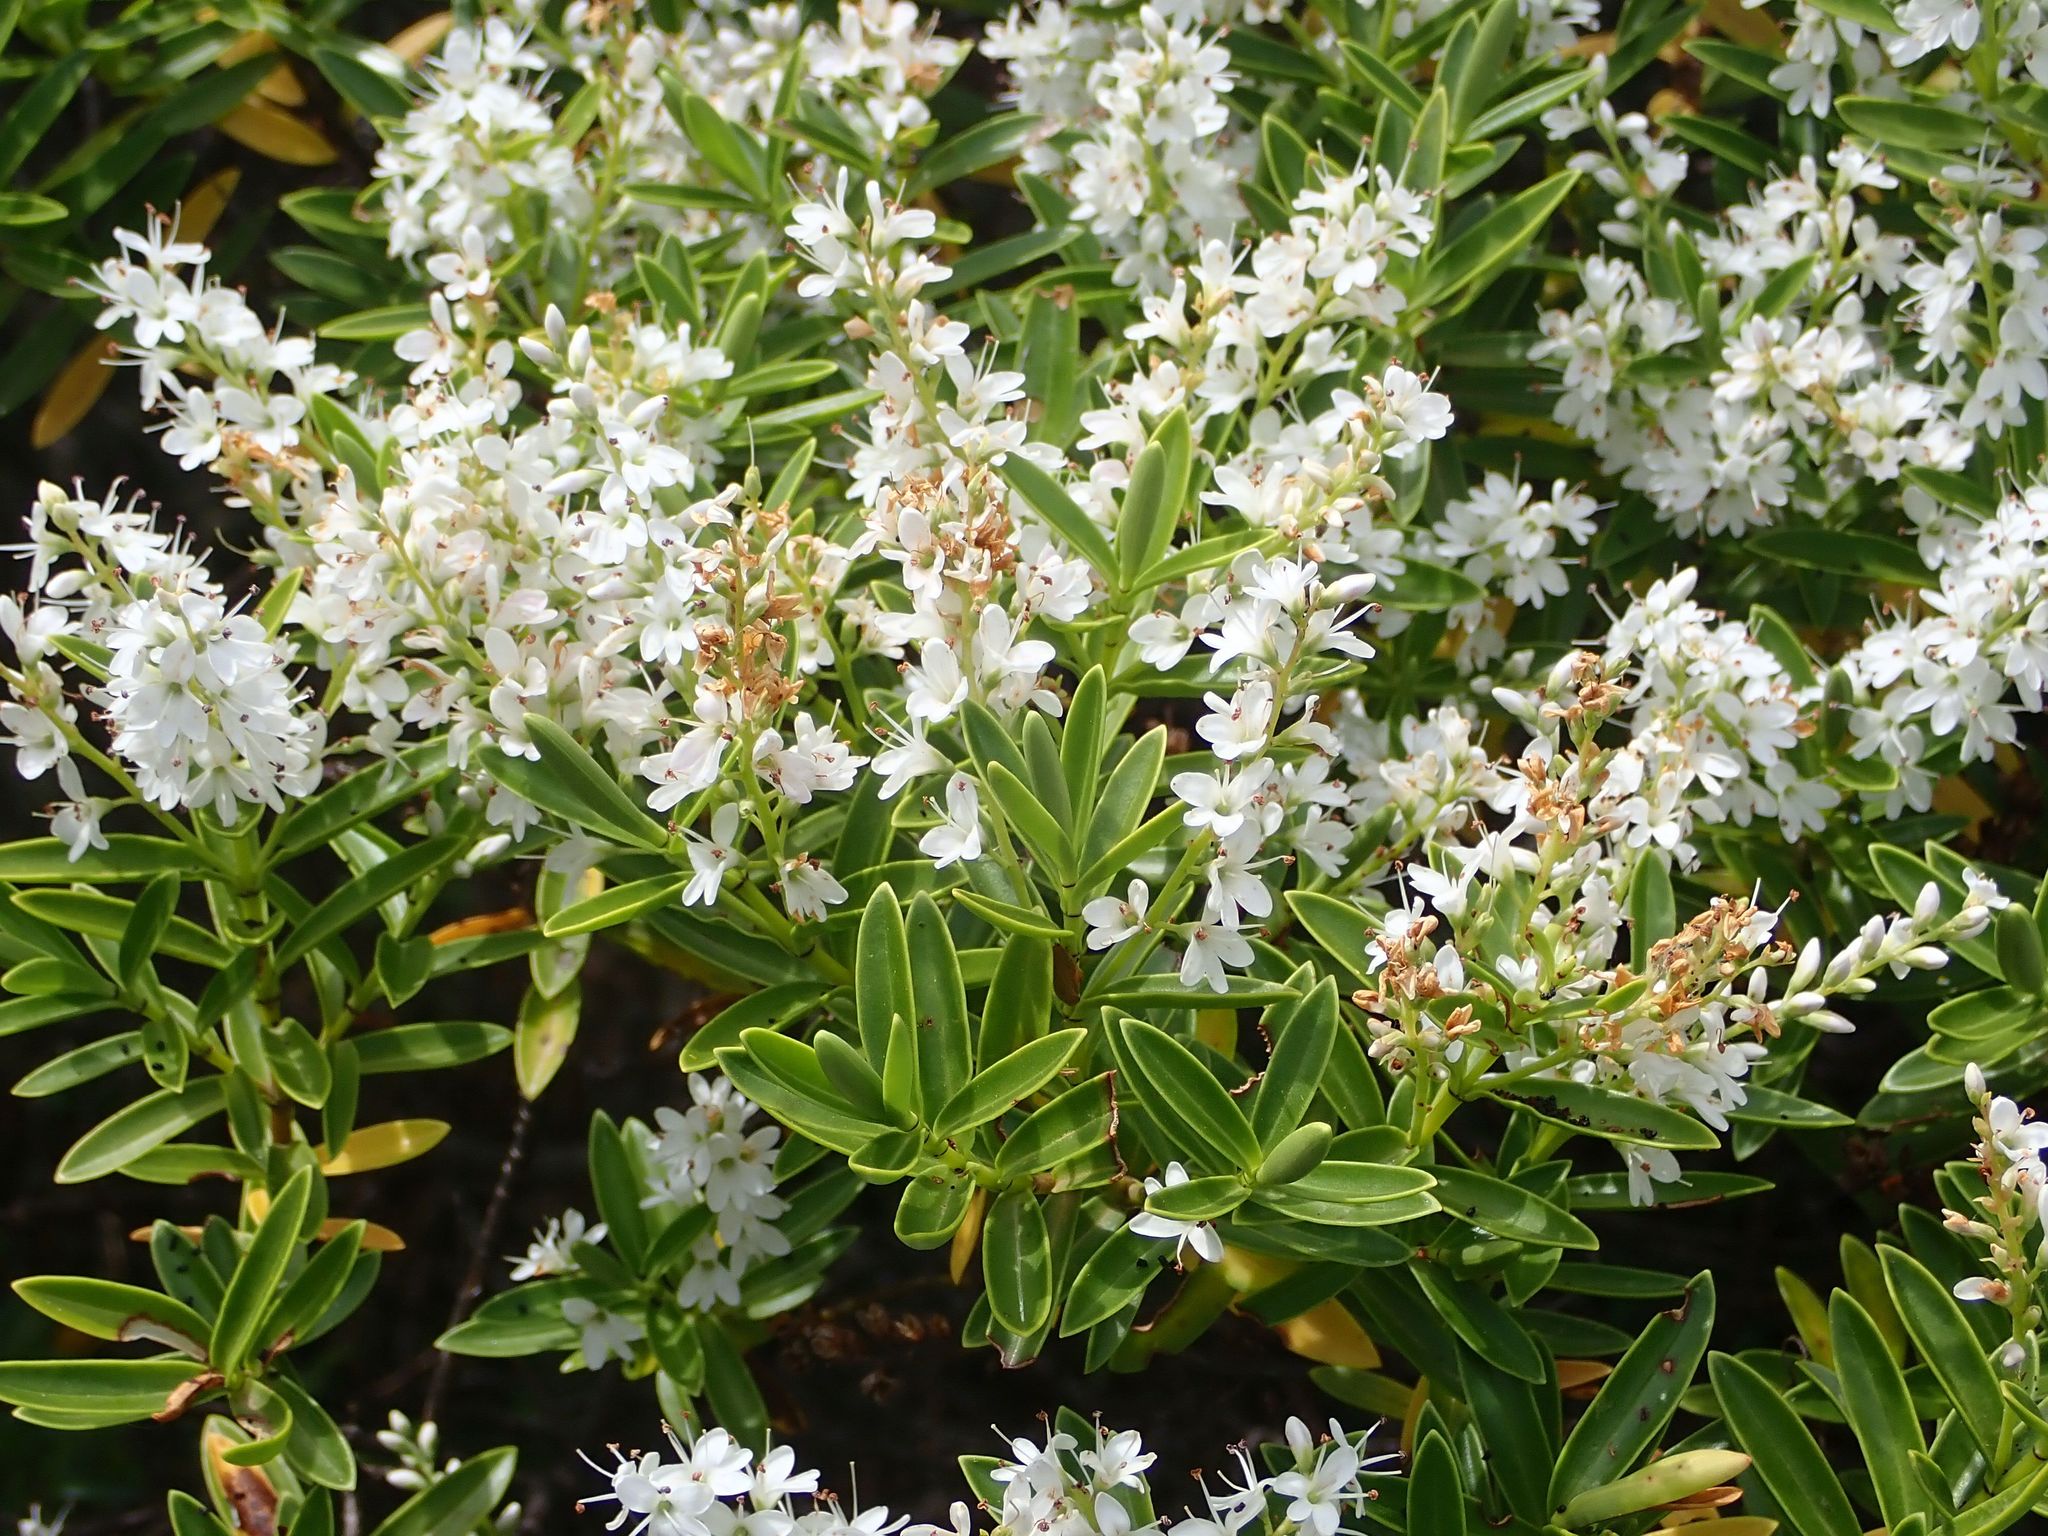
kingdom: Plantae
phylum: Tracheophyta
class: Magnoliopsida
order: Lamiales
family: Plantaginaceae
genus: Veronica
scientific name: Veronica subalpina
